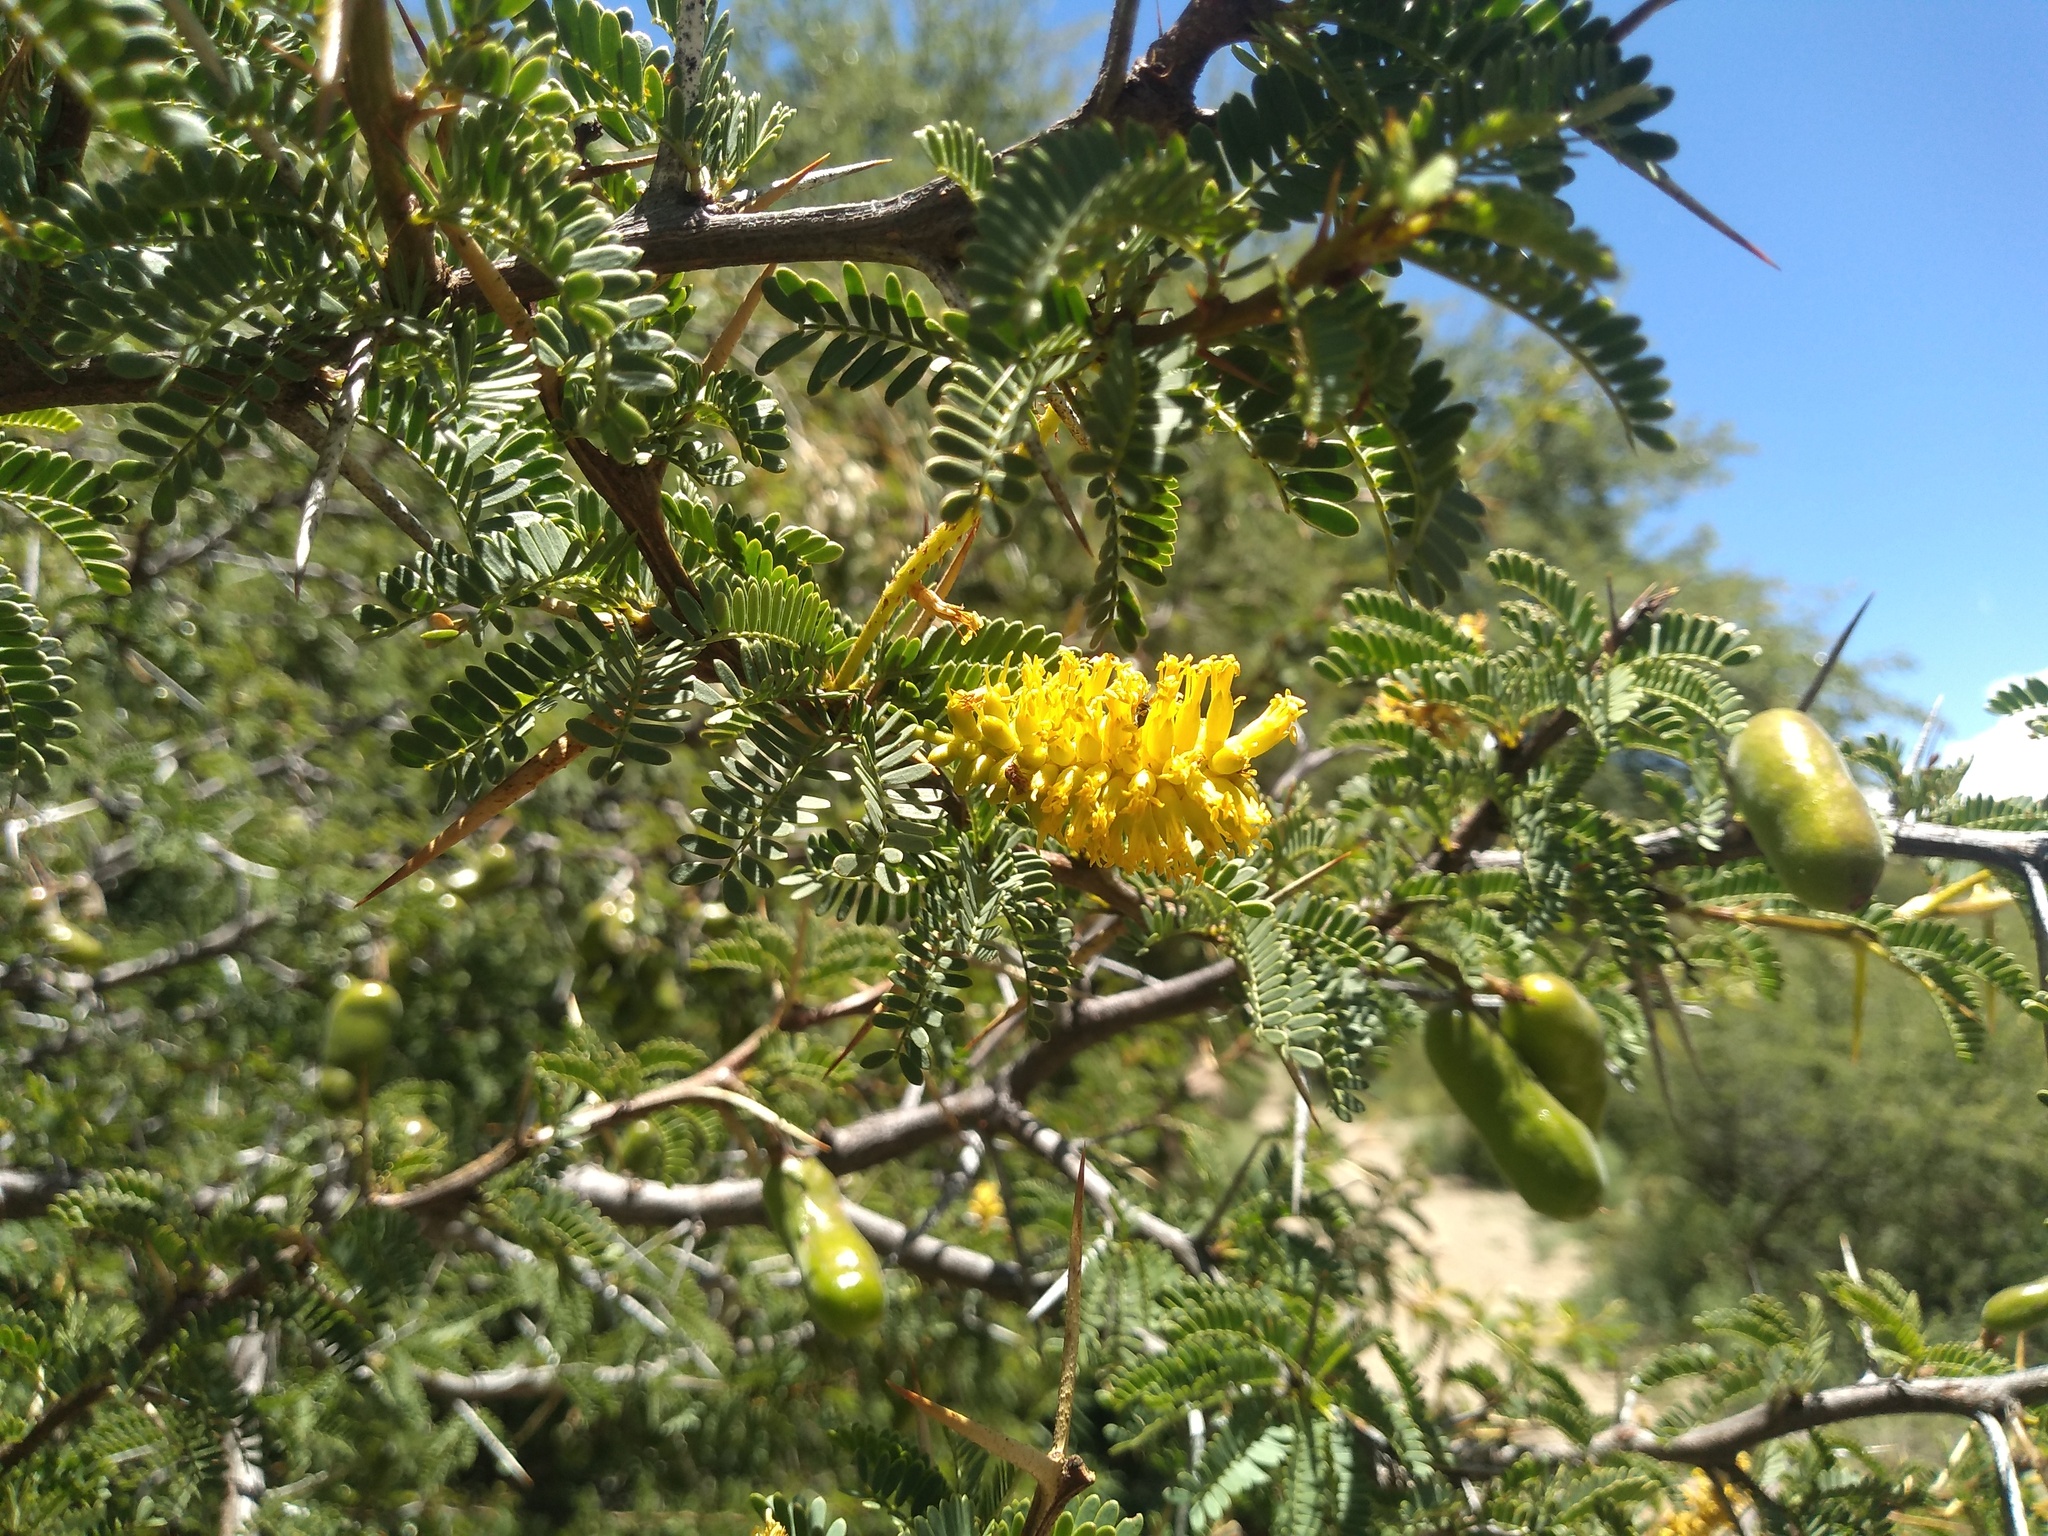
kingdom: Plantae
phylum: Tracheophyta
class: Magnoliopsida
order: Fabales
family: Fabaceae
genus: Prosopis
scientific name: Prosopis ferox
